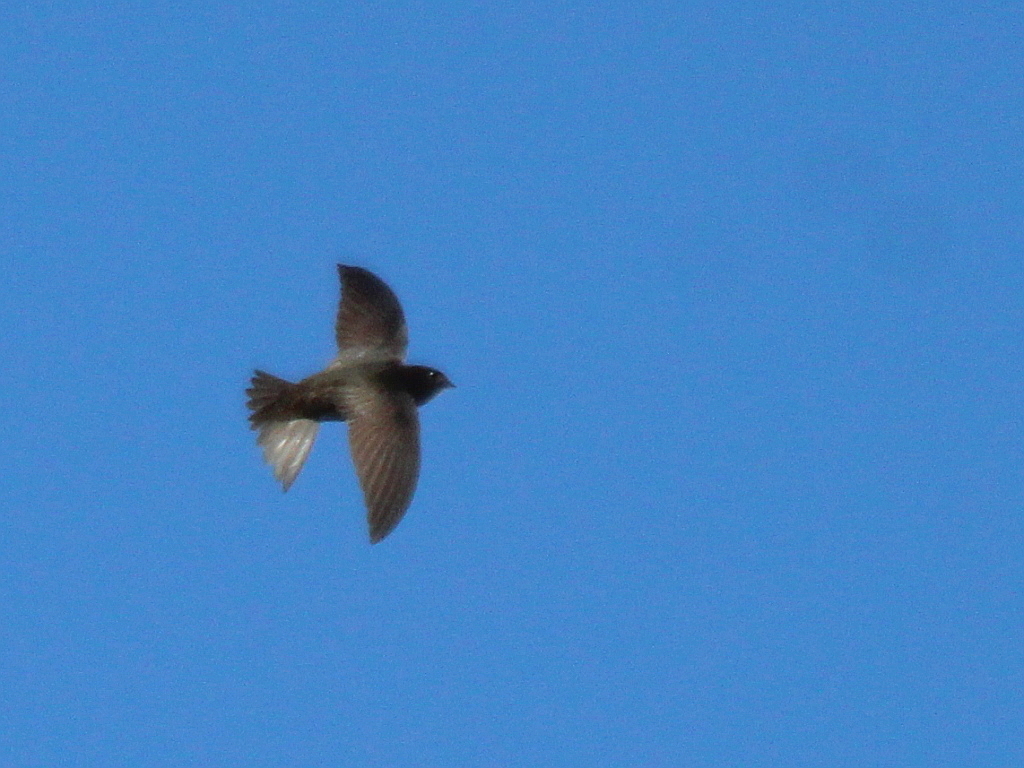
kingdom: Animalia
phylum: Chordata
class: Aves
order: Apodiformes
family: Apodidae
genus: Apus
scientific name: Apus apus
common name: Common swift
